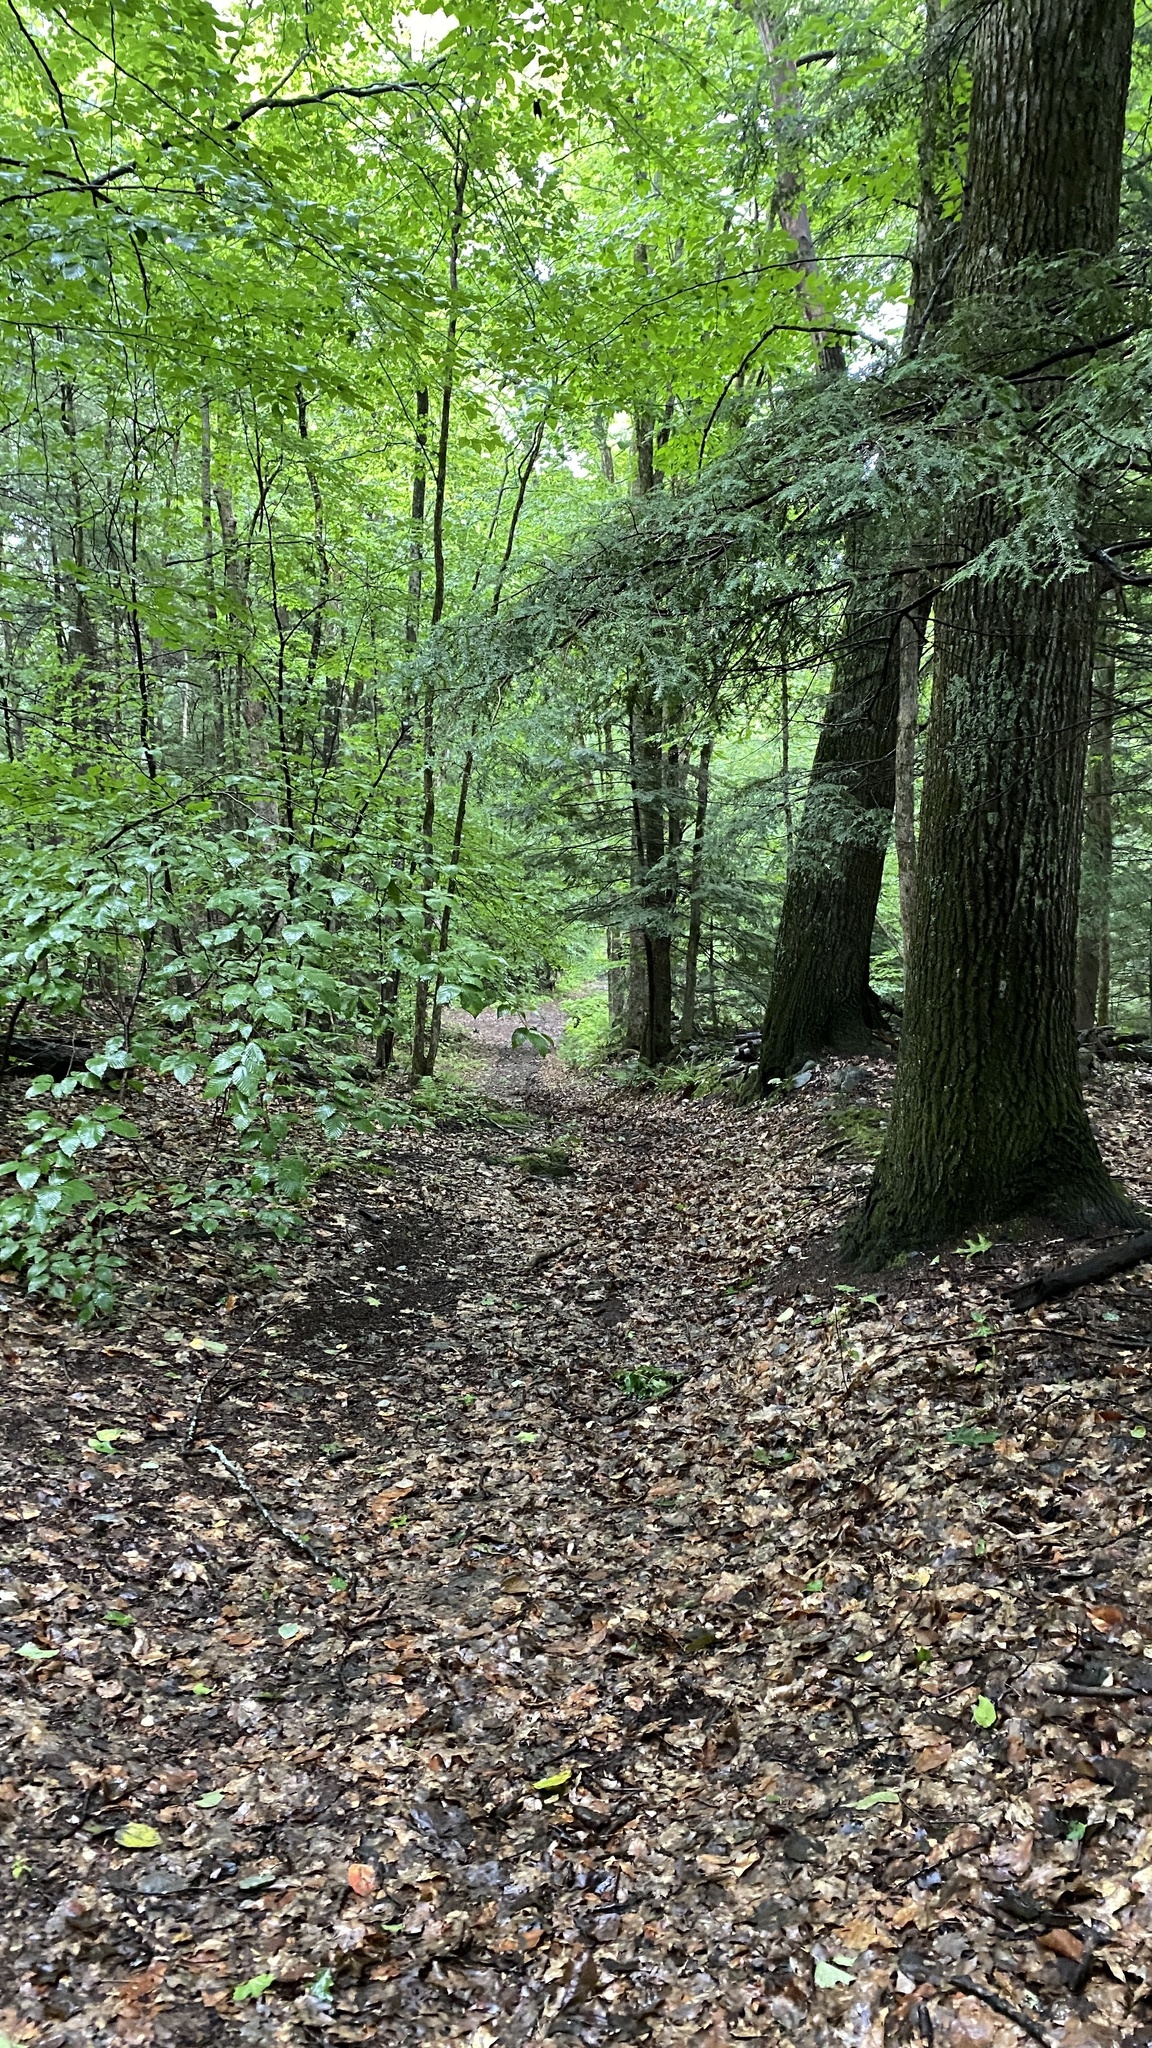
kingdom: Plantae
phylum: Tracheophyta
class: Pinopsida
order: Pinales
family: Pinaceae
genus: Tsuga
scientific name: Tsuga canadensis
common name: Eastern hemlock
